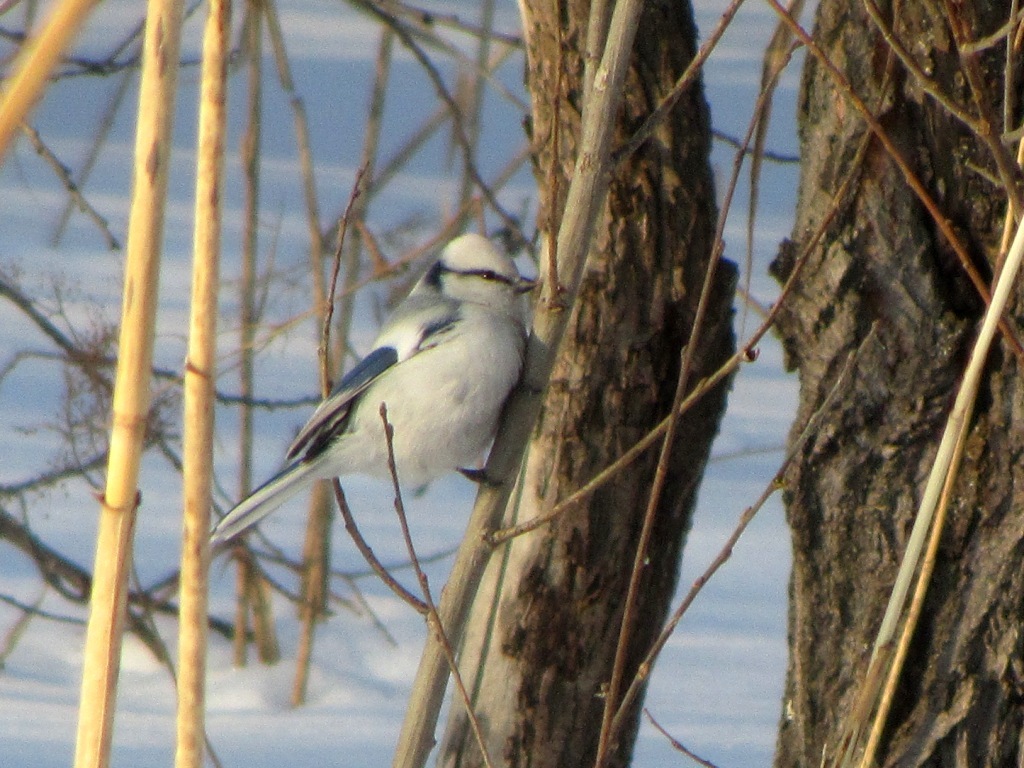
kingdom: Animalia
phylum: Chordata
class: Aves
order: Passeriformes
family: Paridae
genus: Cyanistes
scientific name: Cyanistes cyanus
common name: Azure tit
